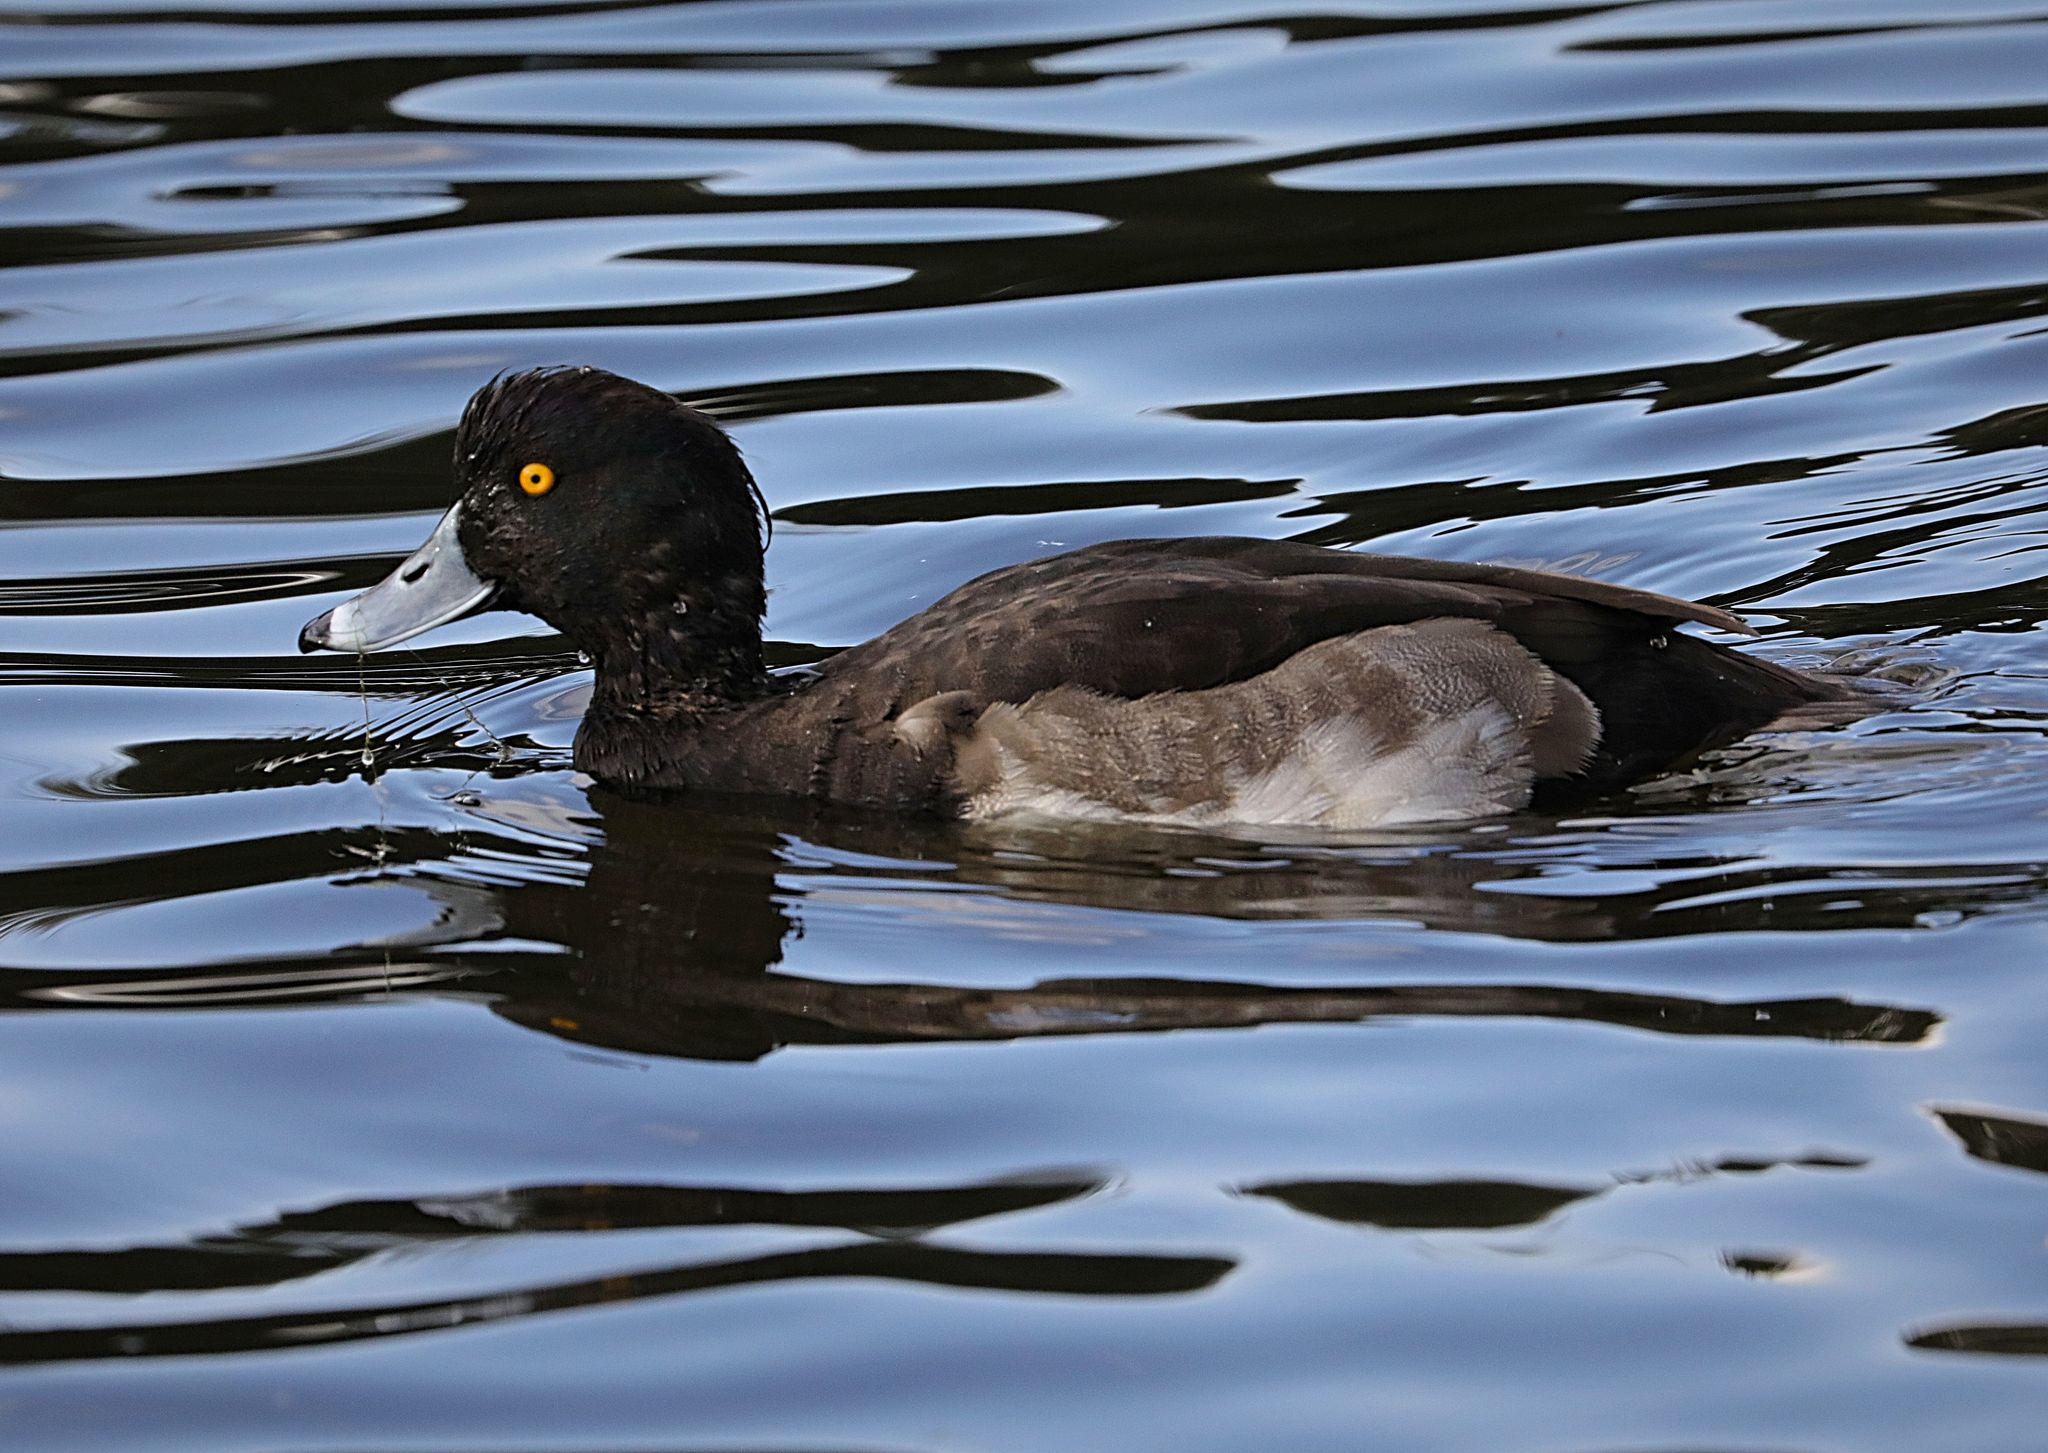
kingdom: Animalia
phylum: Chordata
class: Aves
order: Anseriformes
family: Anatidae
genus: Aythya
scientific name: Aythya fuligula
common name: Tufted duck
